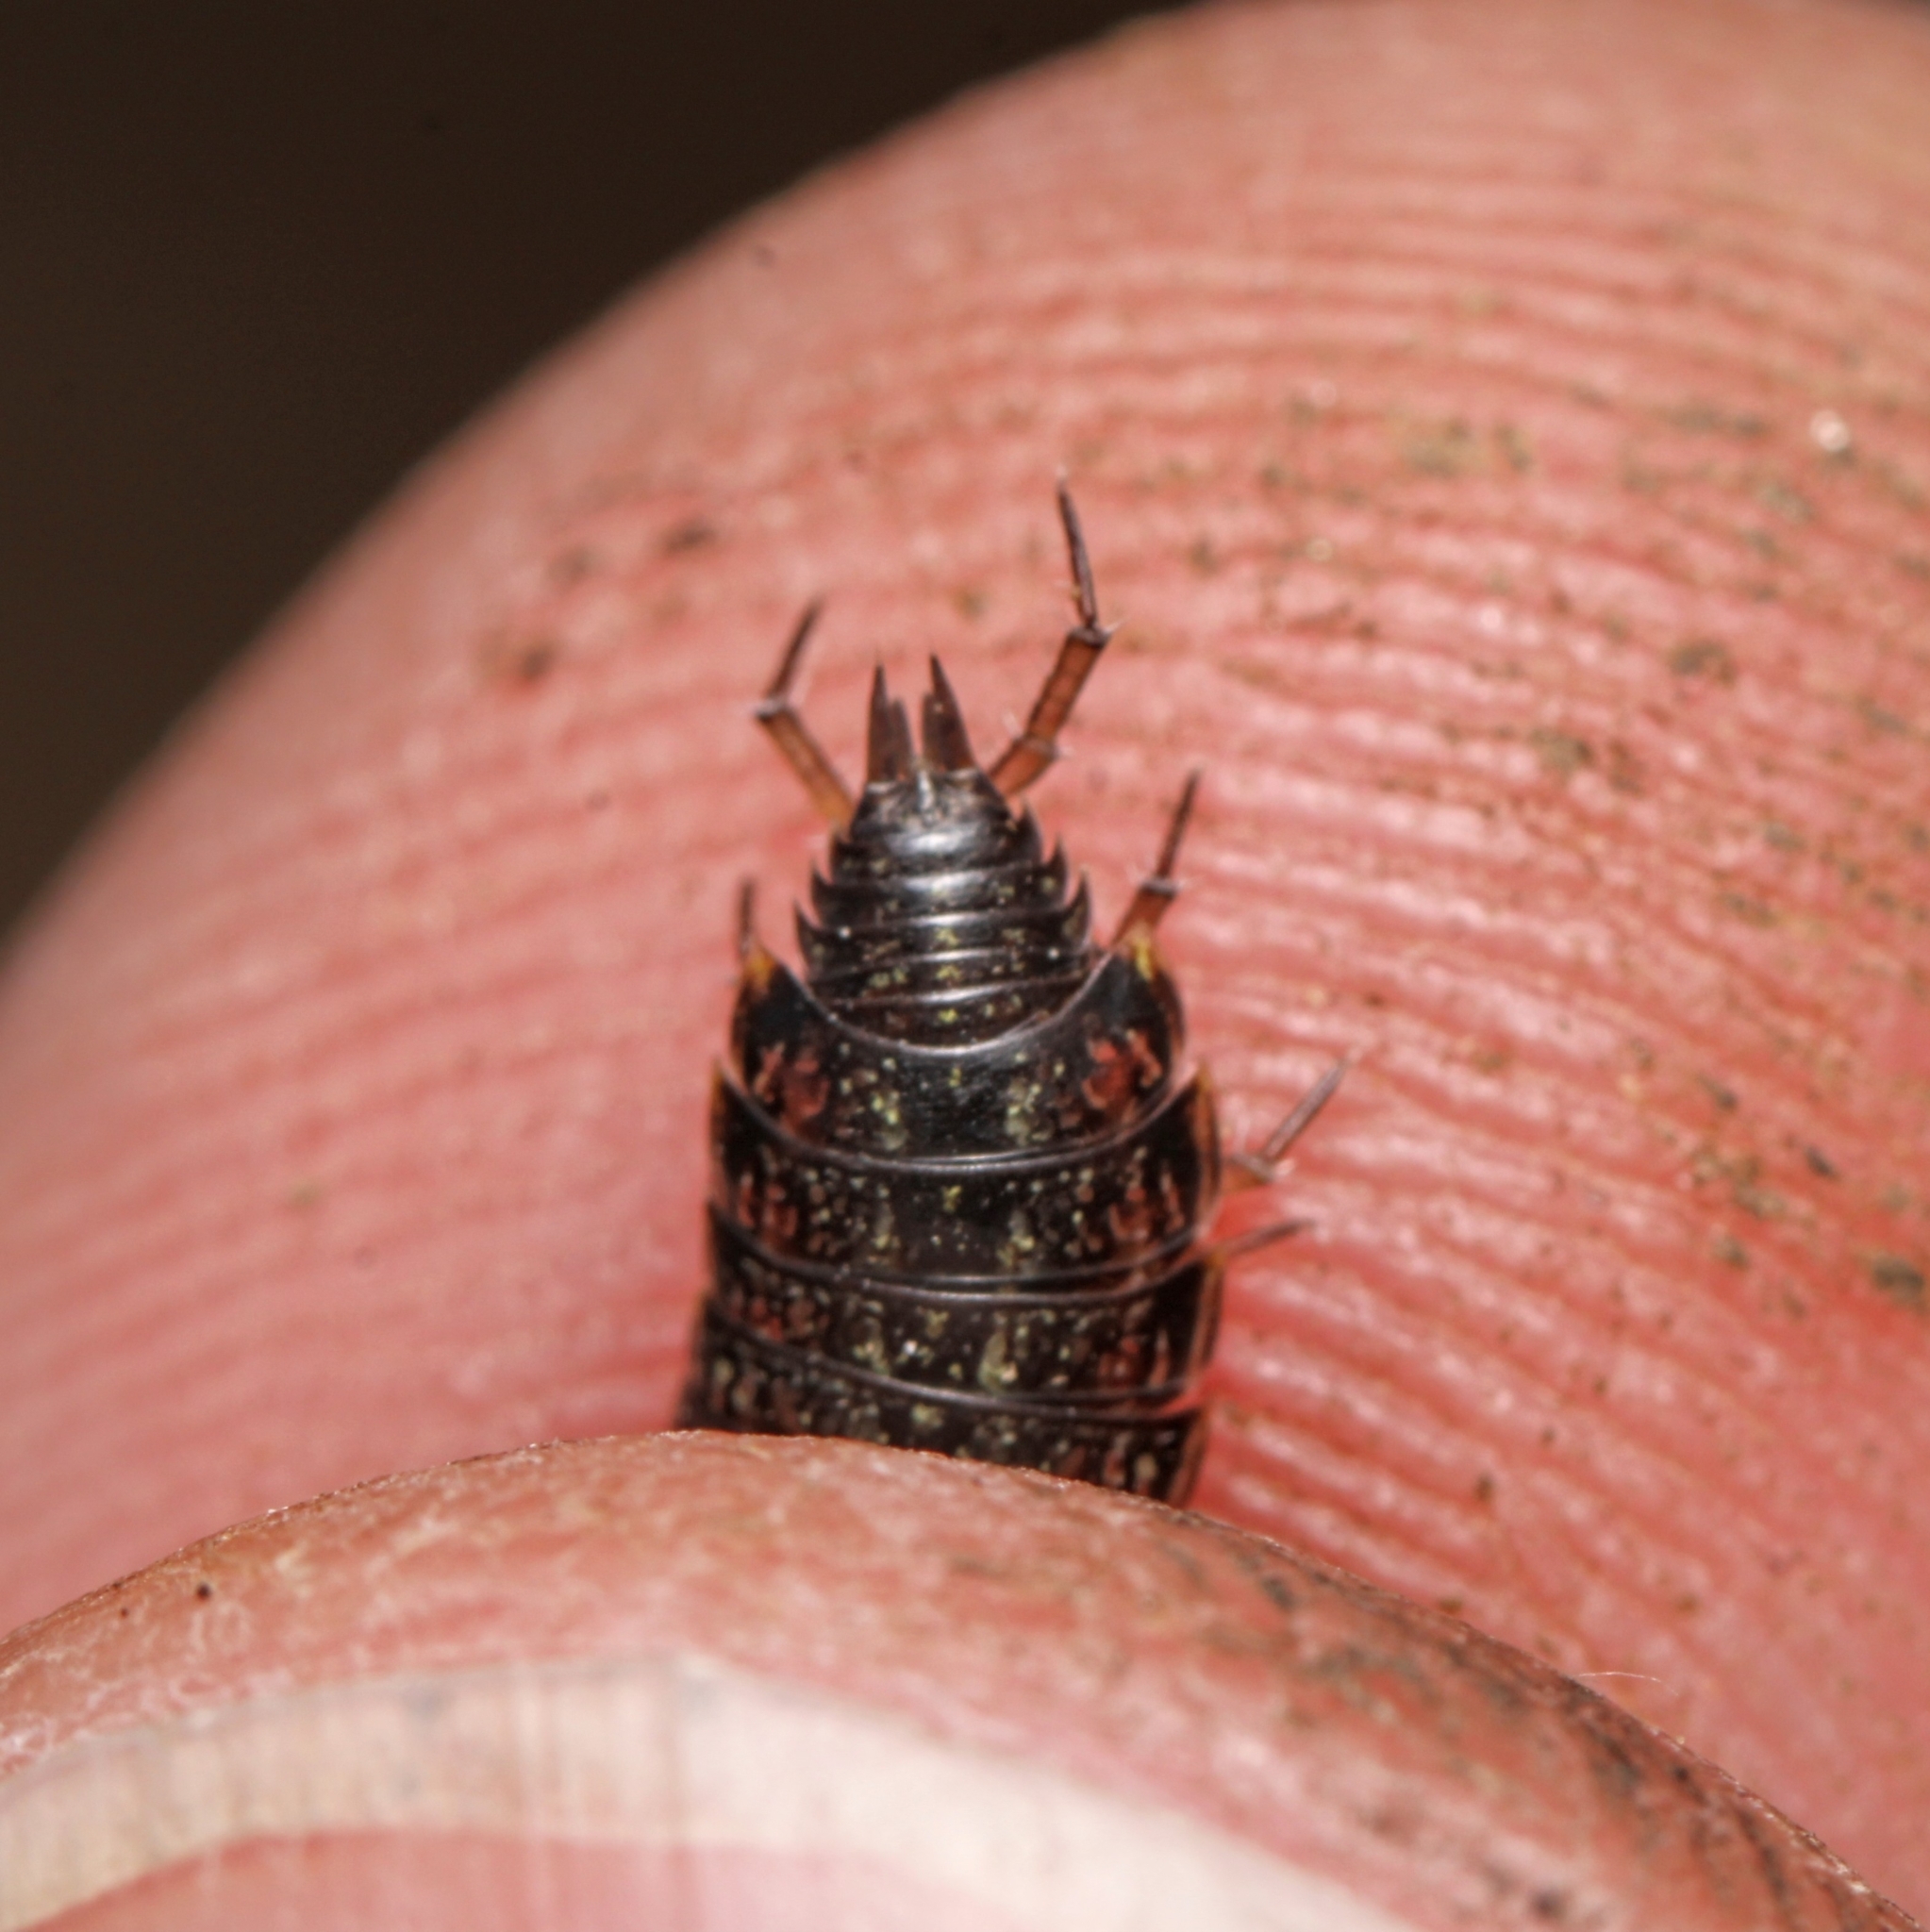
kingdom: Animalia
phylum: Arthropoda
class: Malacostraca
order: Isopoda
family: Philosciidae
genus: Philoscia
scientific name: Philoscia muscorum
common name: Common striped woodlouse
